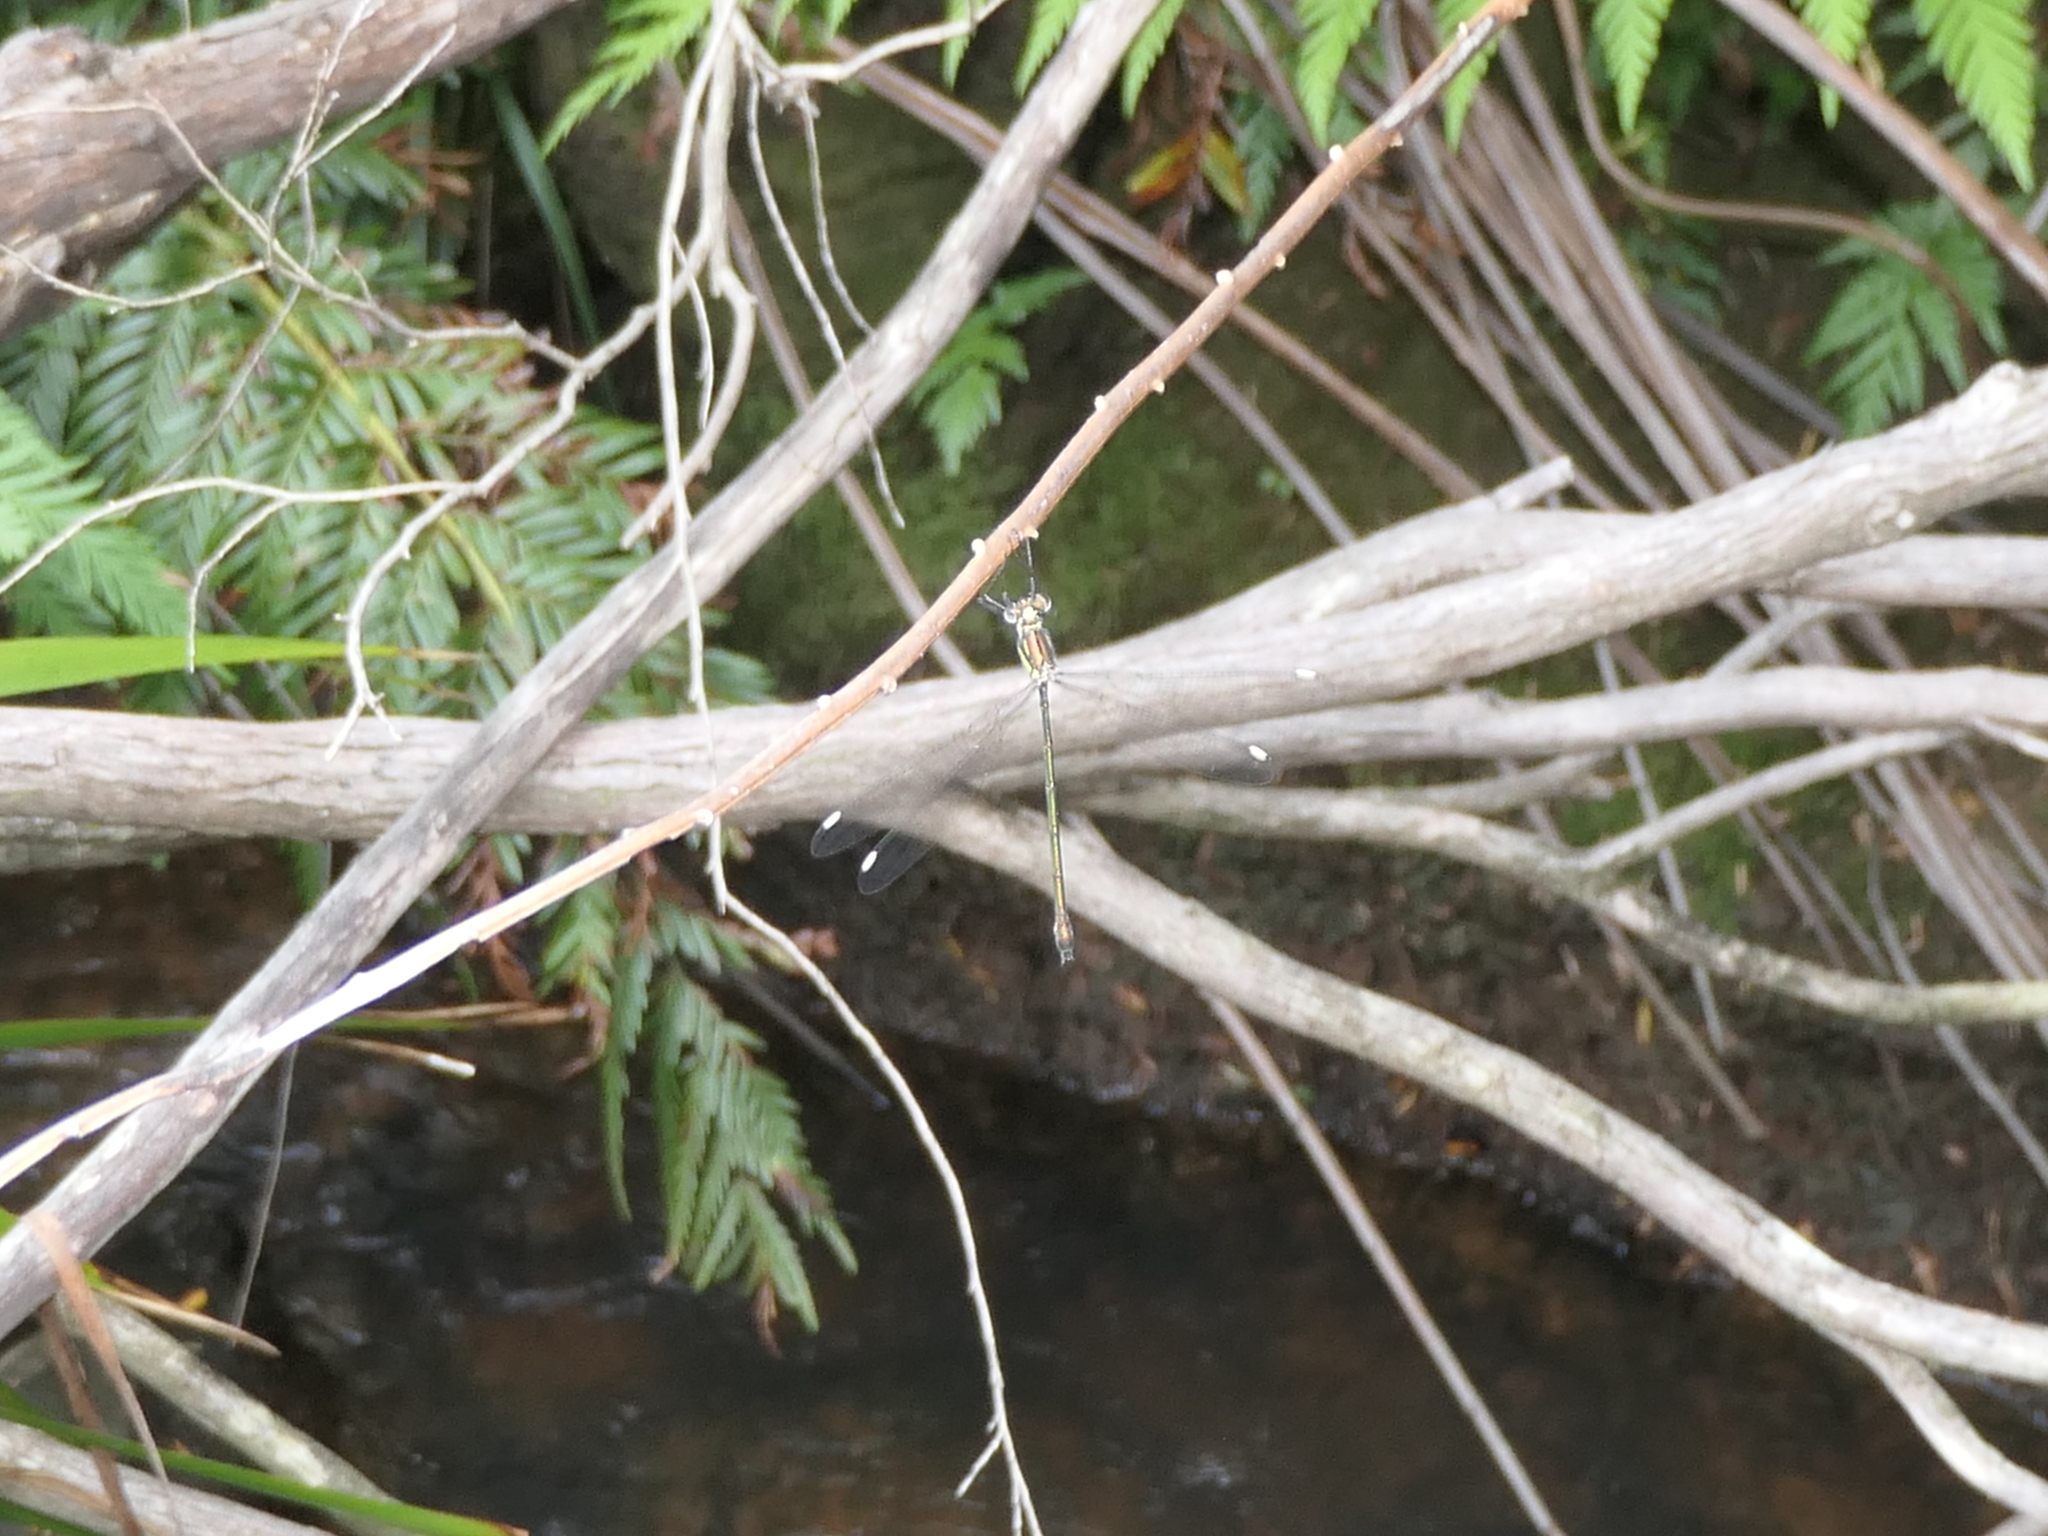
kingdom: Animalia
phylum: Arthropoda
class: Insecta
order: Odonata
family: Synlestidae
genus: Synlestes
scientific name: Synlestes weyersii
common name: Bronze needle
